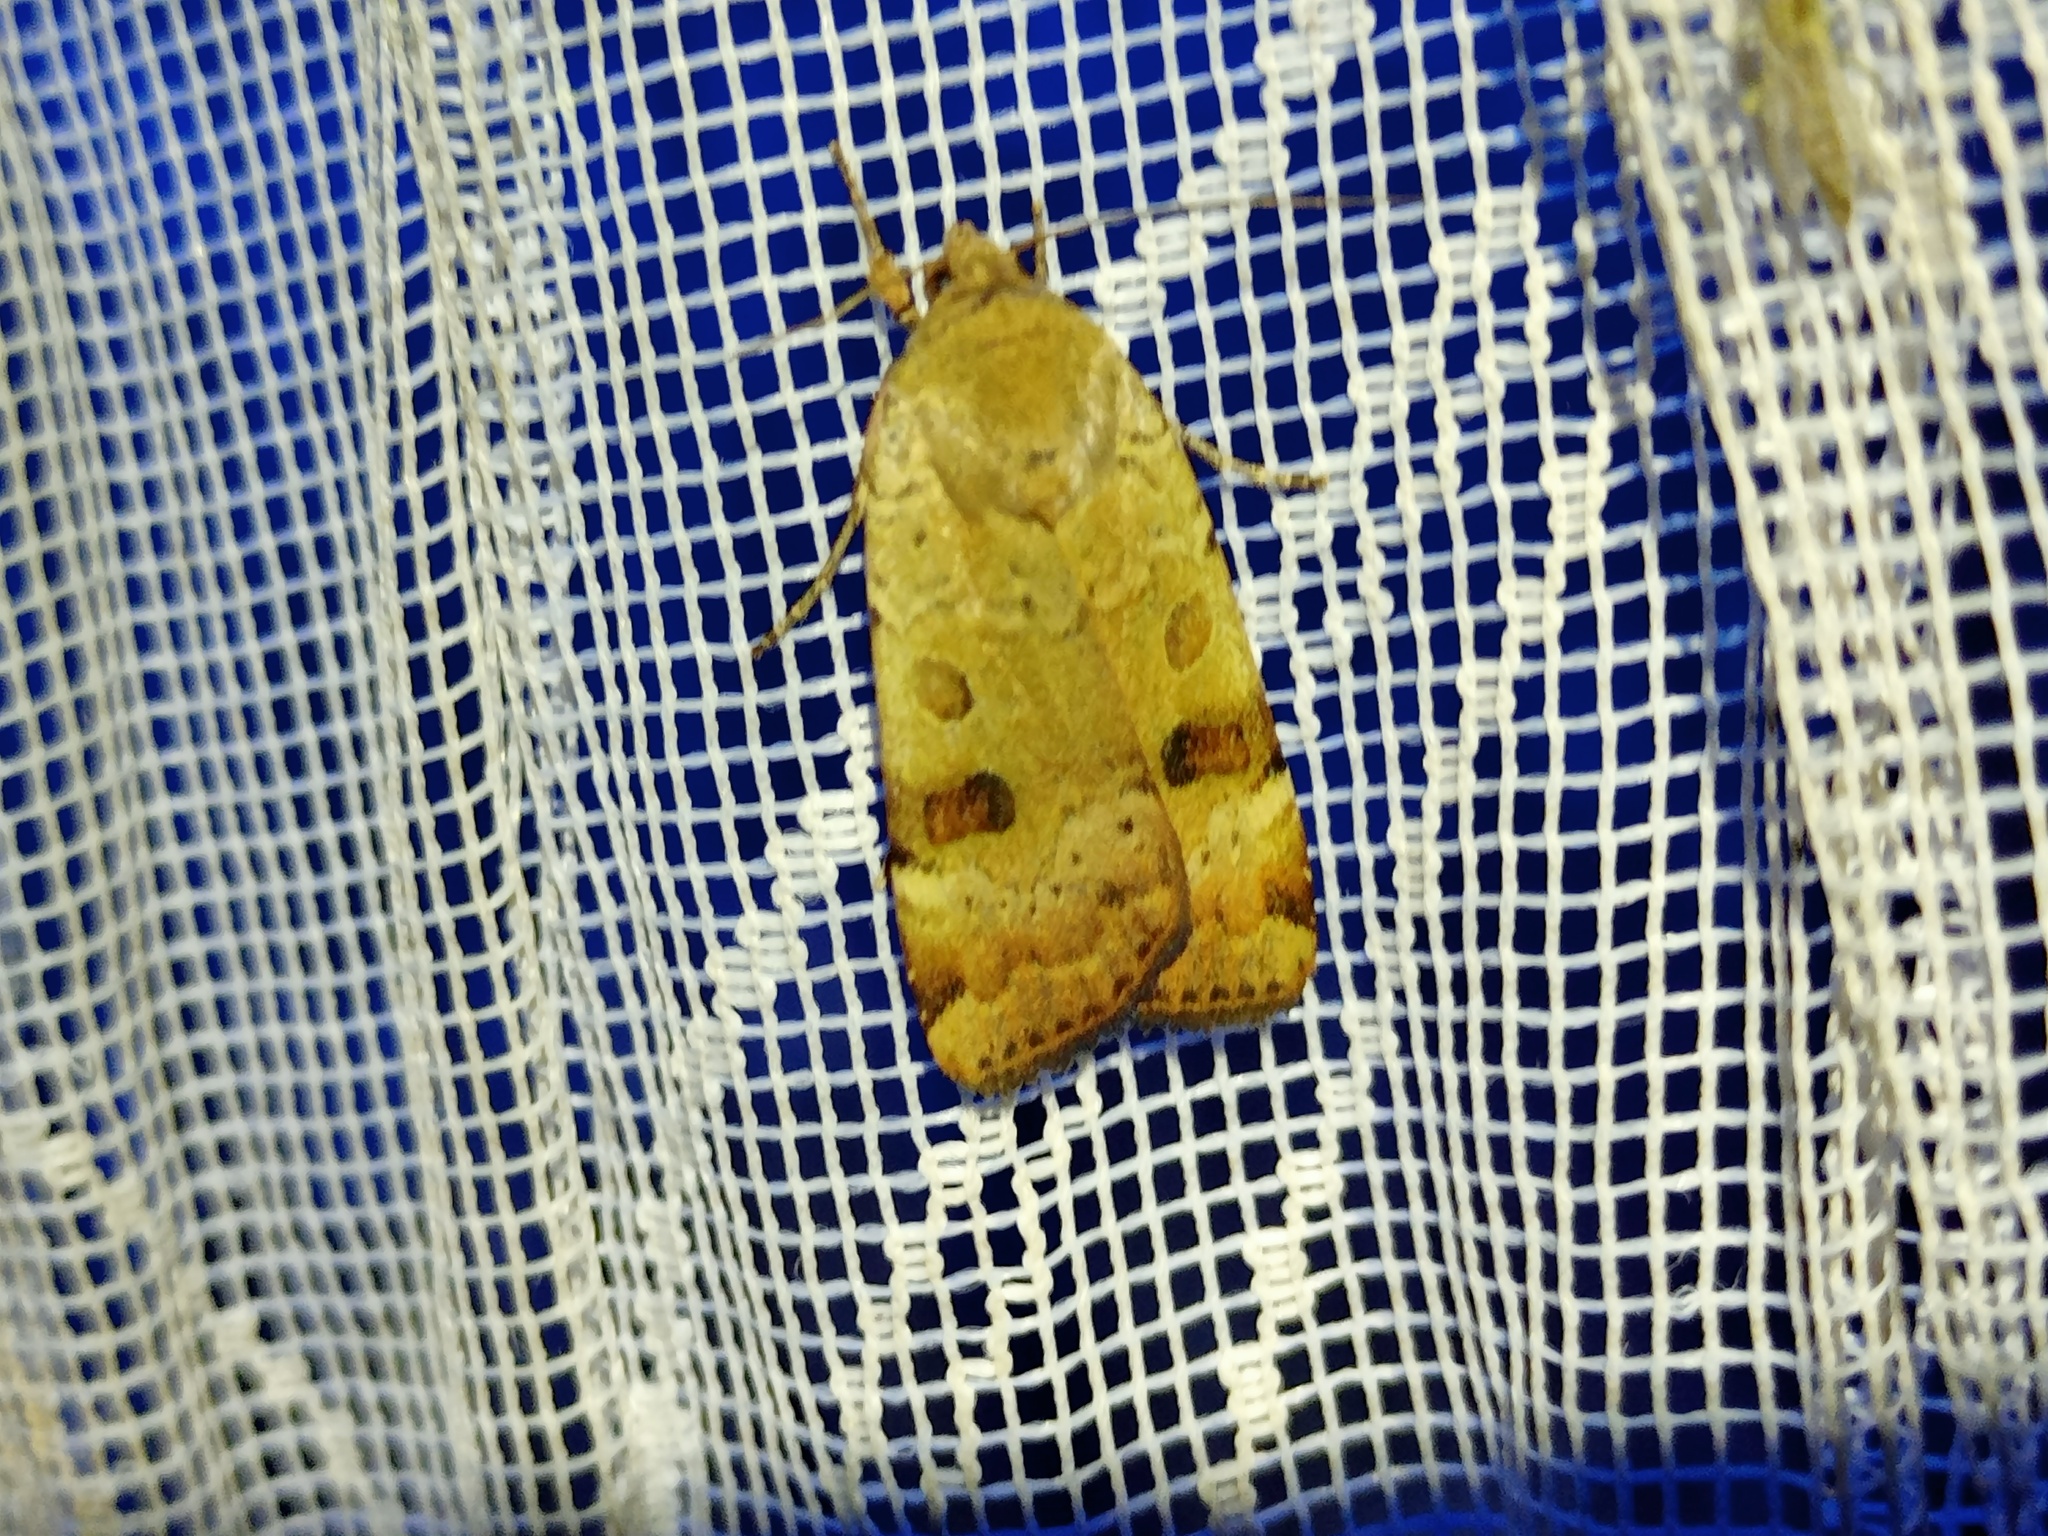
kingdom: Animalia
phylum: Arthropoda
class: Insecta
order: Lepidoptera
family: Noctuidae
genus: Noctua
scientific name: Noctua interposita
